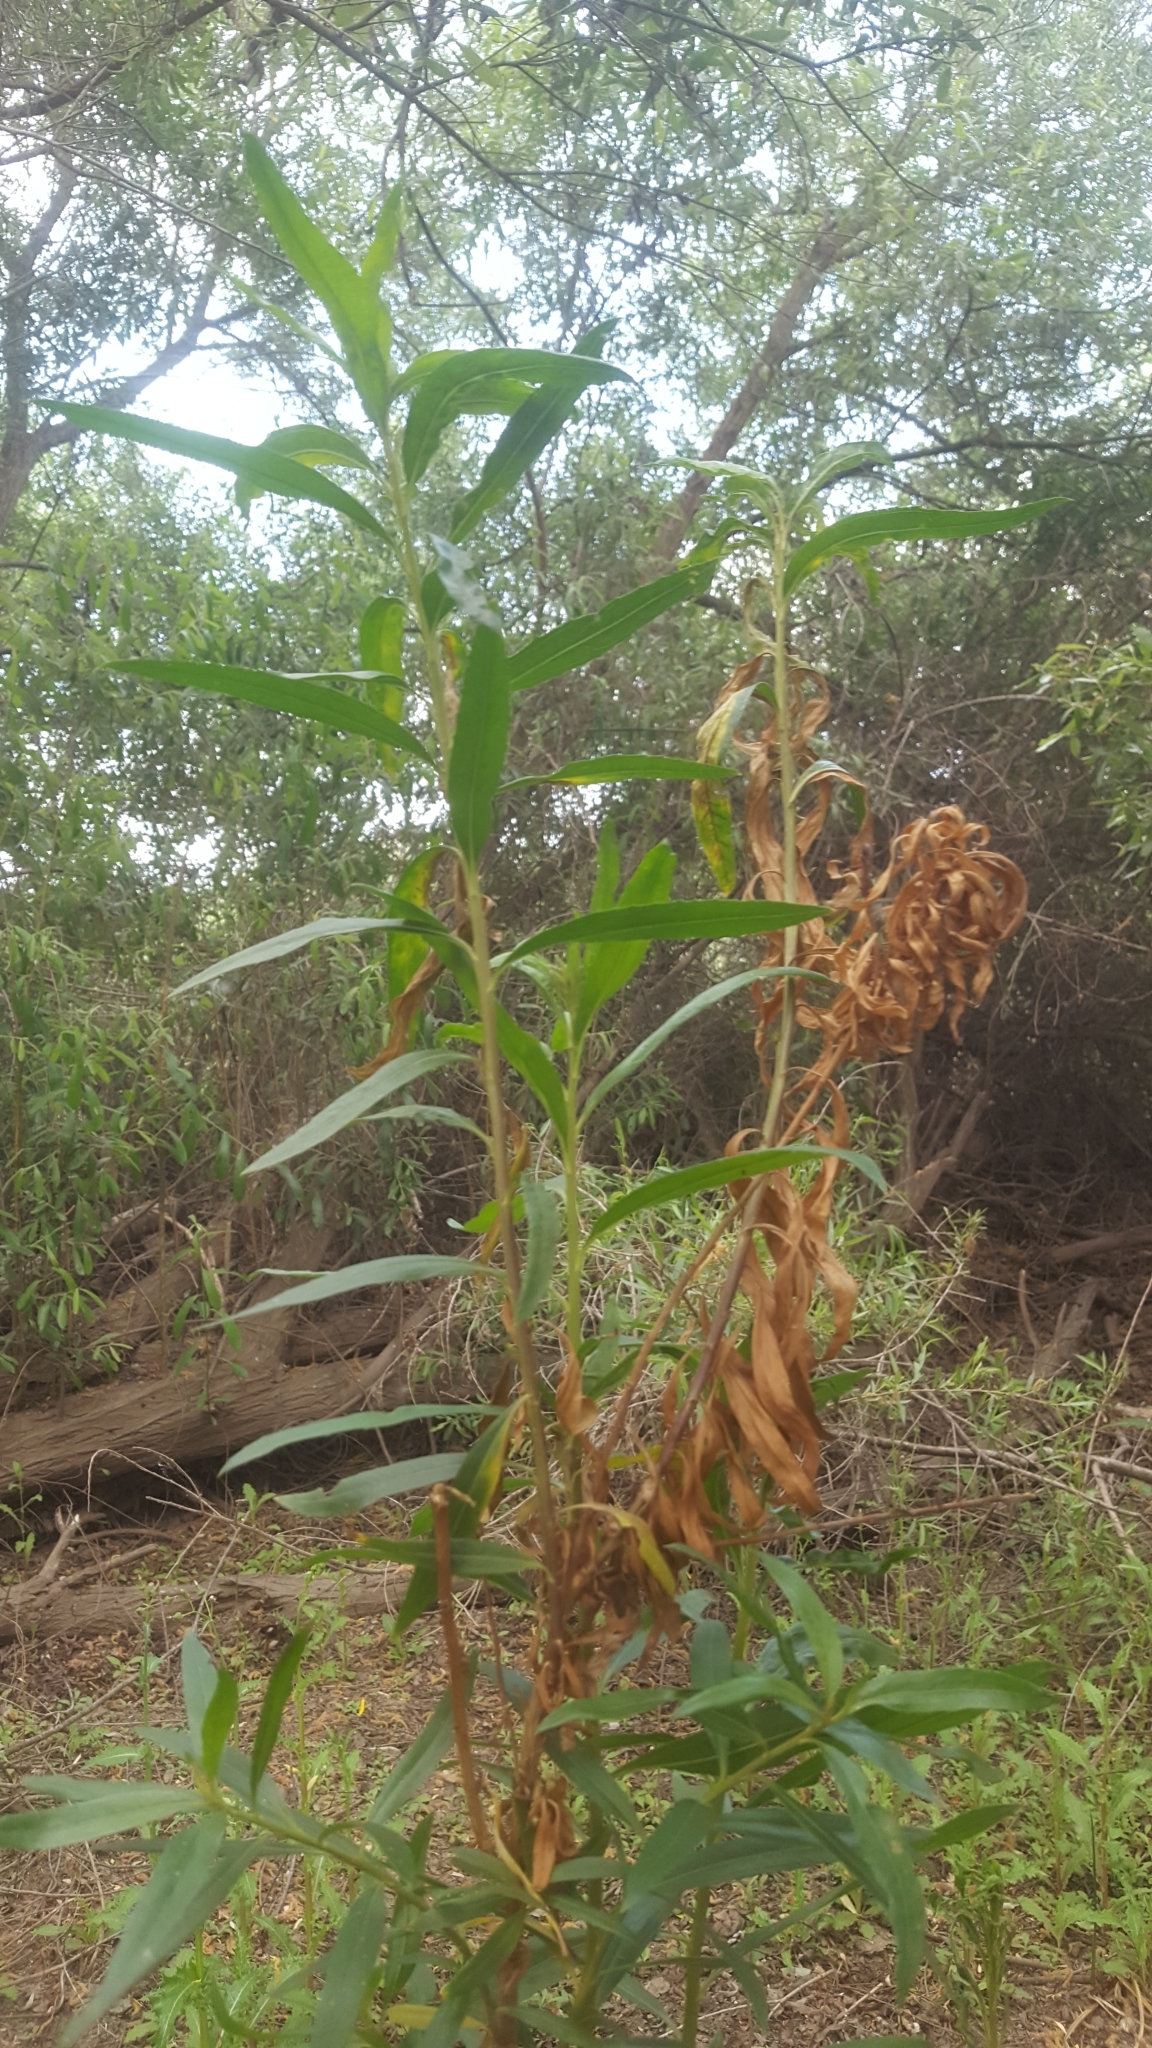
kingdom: Plantae
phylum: Tracheophyta
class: Magnoliopsida
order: Asterales
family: Asteraceae
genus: Baccharis
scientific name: Baccharis salicifolia
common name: Sticky baccharis
